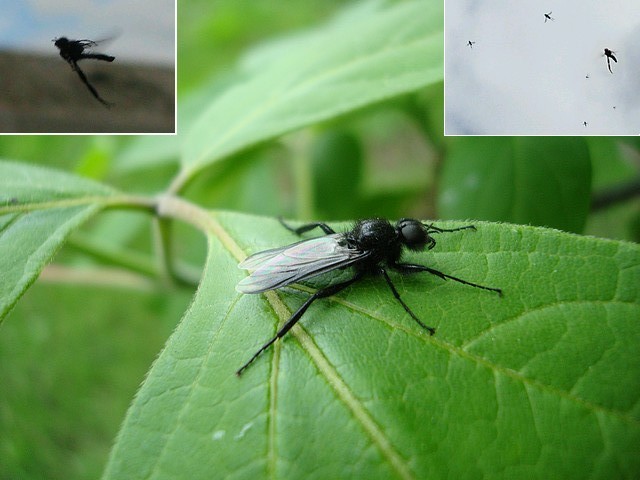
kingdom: Animalia
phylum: Arthropoda
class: Insecta
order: Diptera
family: Bibionidae
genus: Bibio
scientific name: Bibio marci
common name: St marks fly
